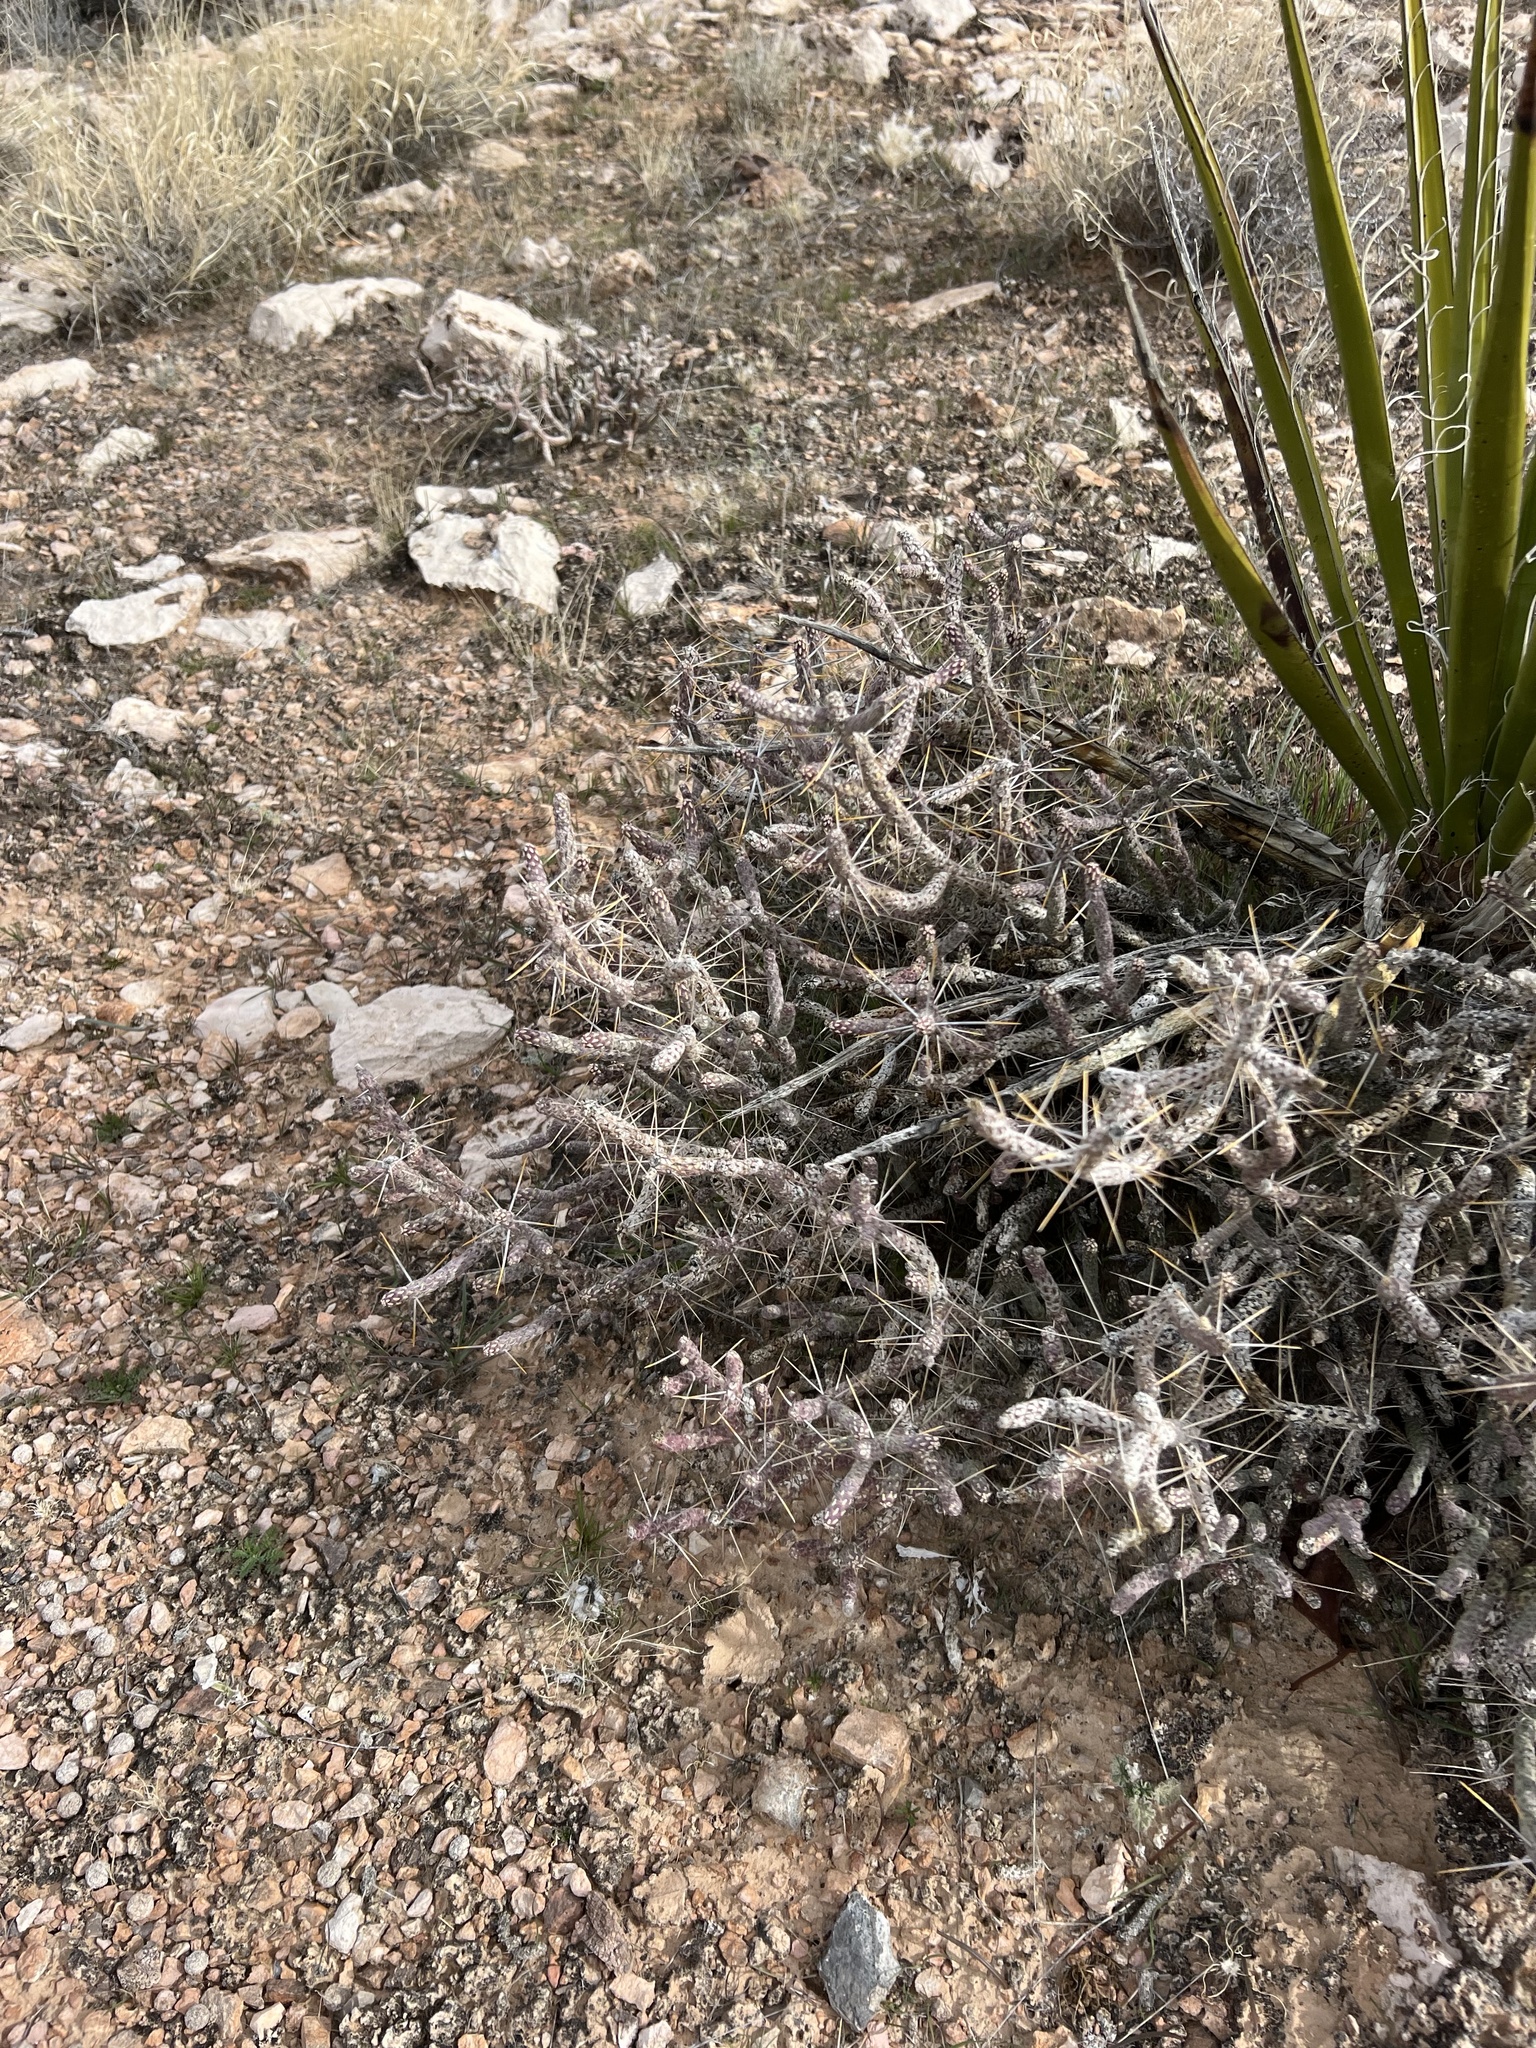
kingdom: Plantae
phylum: Tracheophyta
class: Magnoliopsida
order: Caryophyllales
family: Cactaceae
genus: Cylindropuntia
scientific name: Cylindropuntia ramosissima
